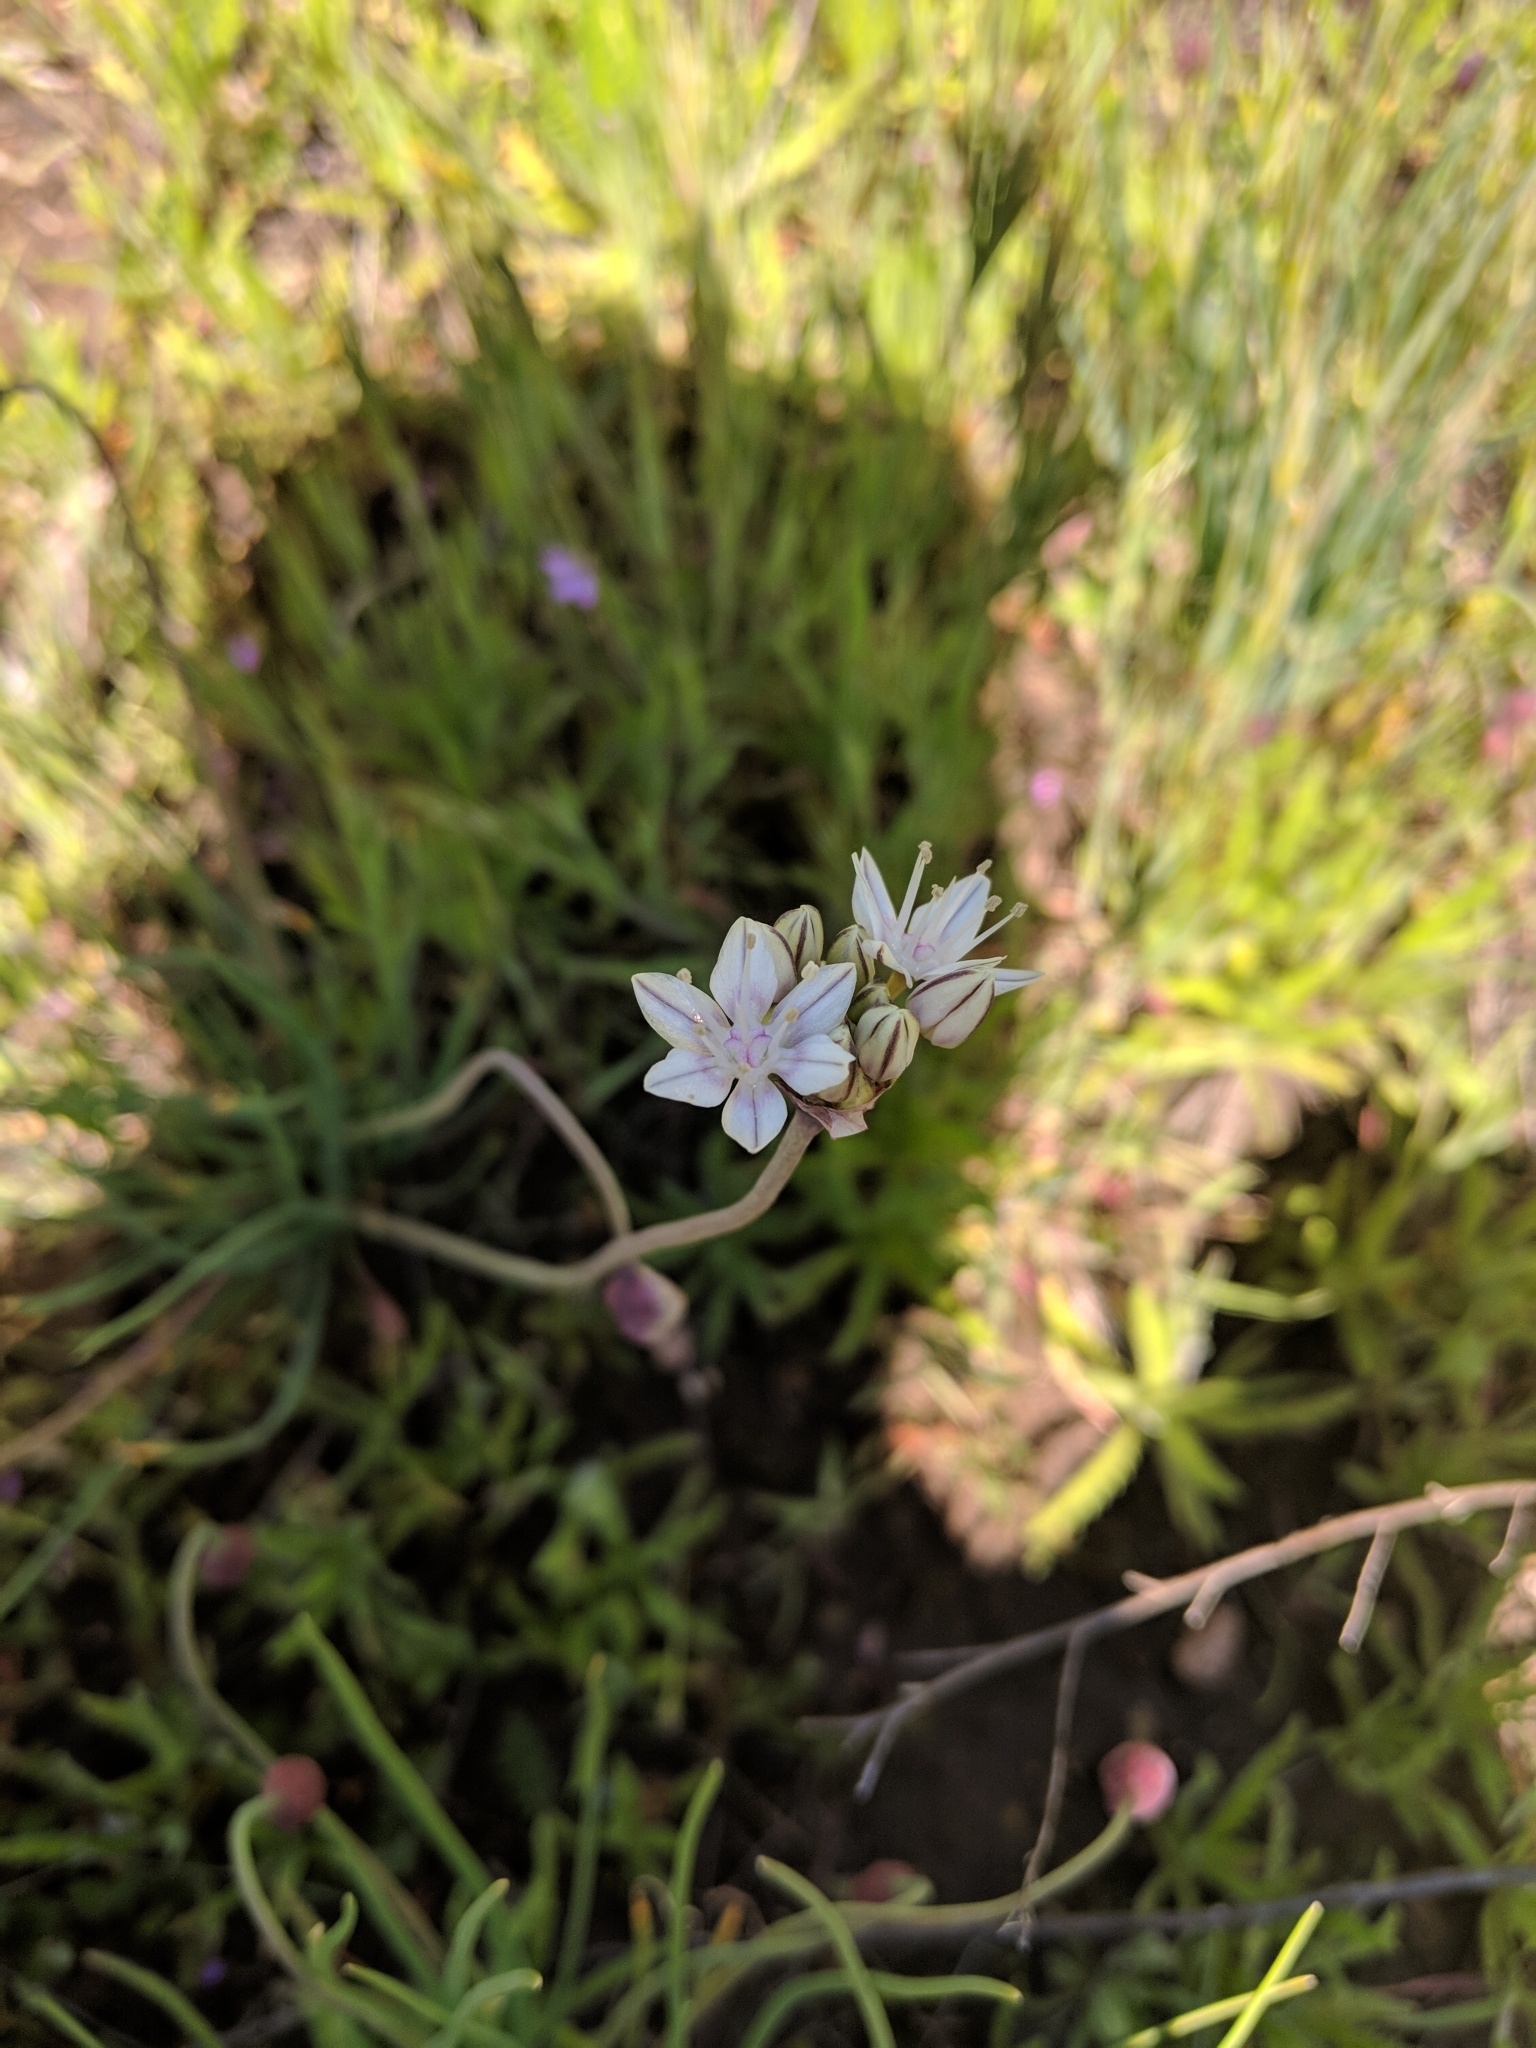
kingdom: Plantae
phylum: Tracheophyta
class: Liliopsida
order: Asparagales
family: Amaryllidaceae
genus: Allium
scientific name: Allium haematochiton
